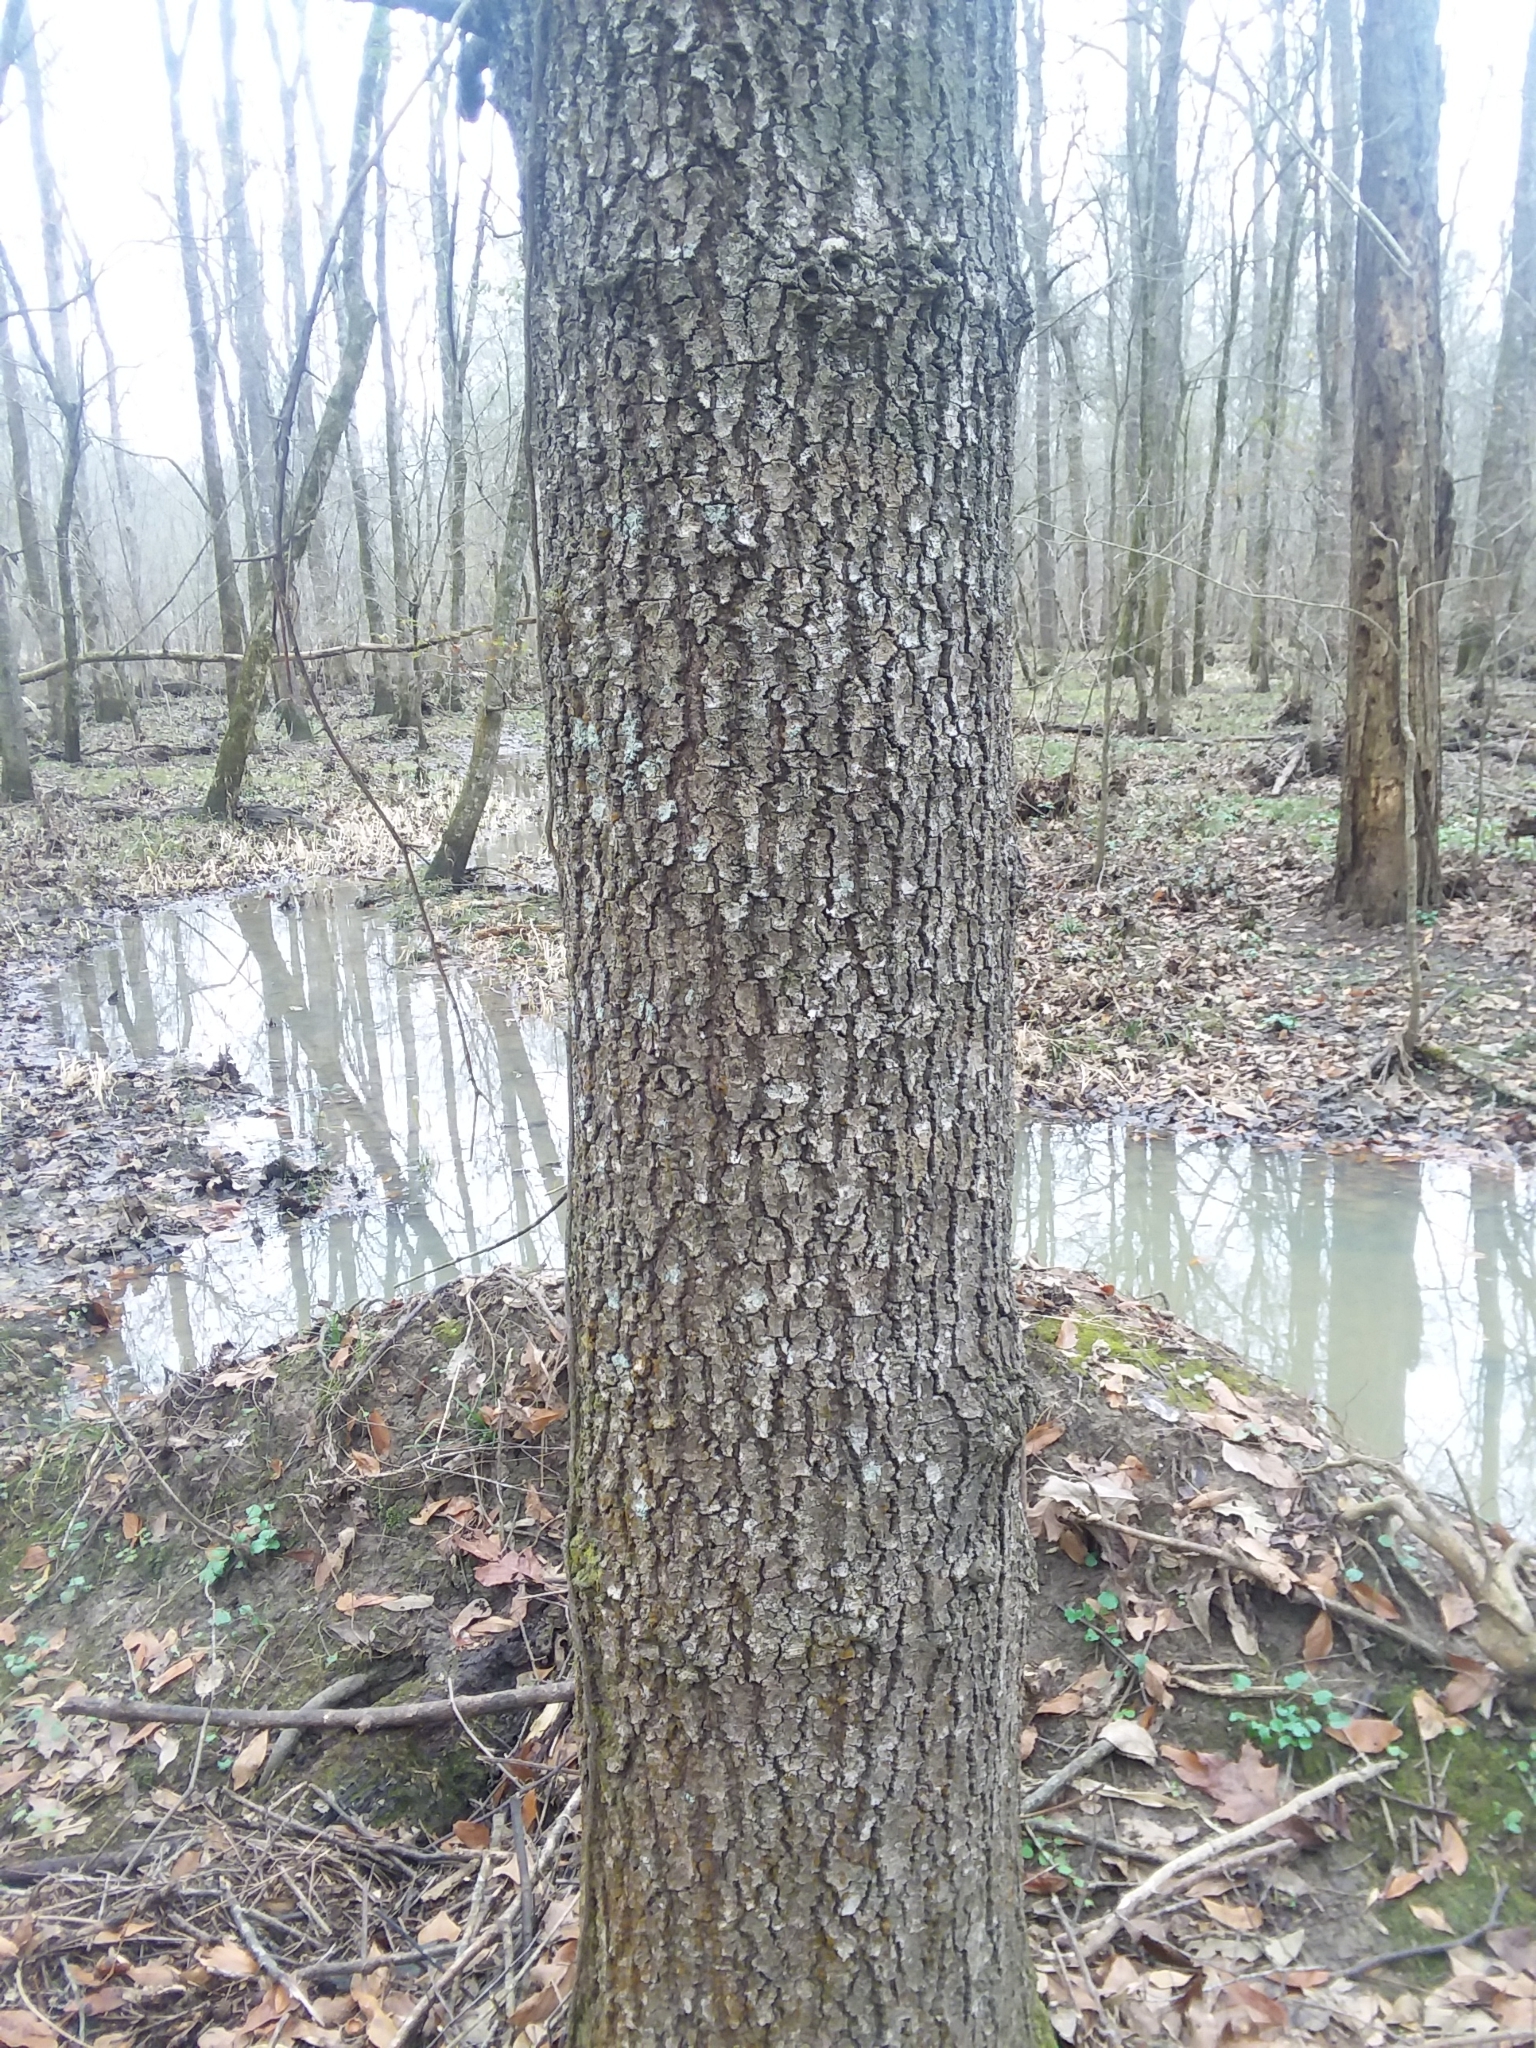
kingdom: Plantae
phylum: Tracheophyta
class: Magnoliopsida
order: Fagales
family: Fagaceae
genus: Quercus
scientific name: Quercus laurifolia
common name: Swamp laurel oak
